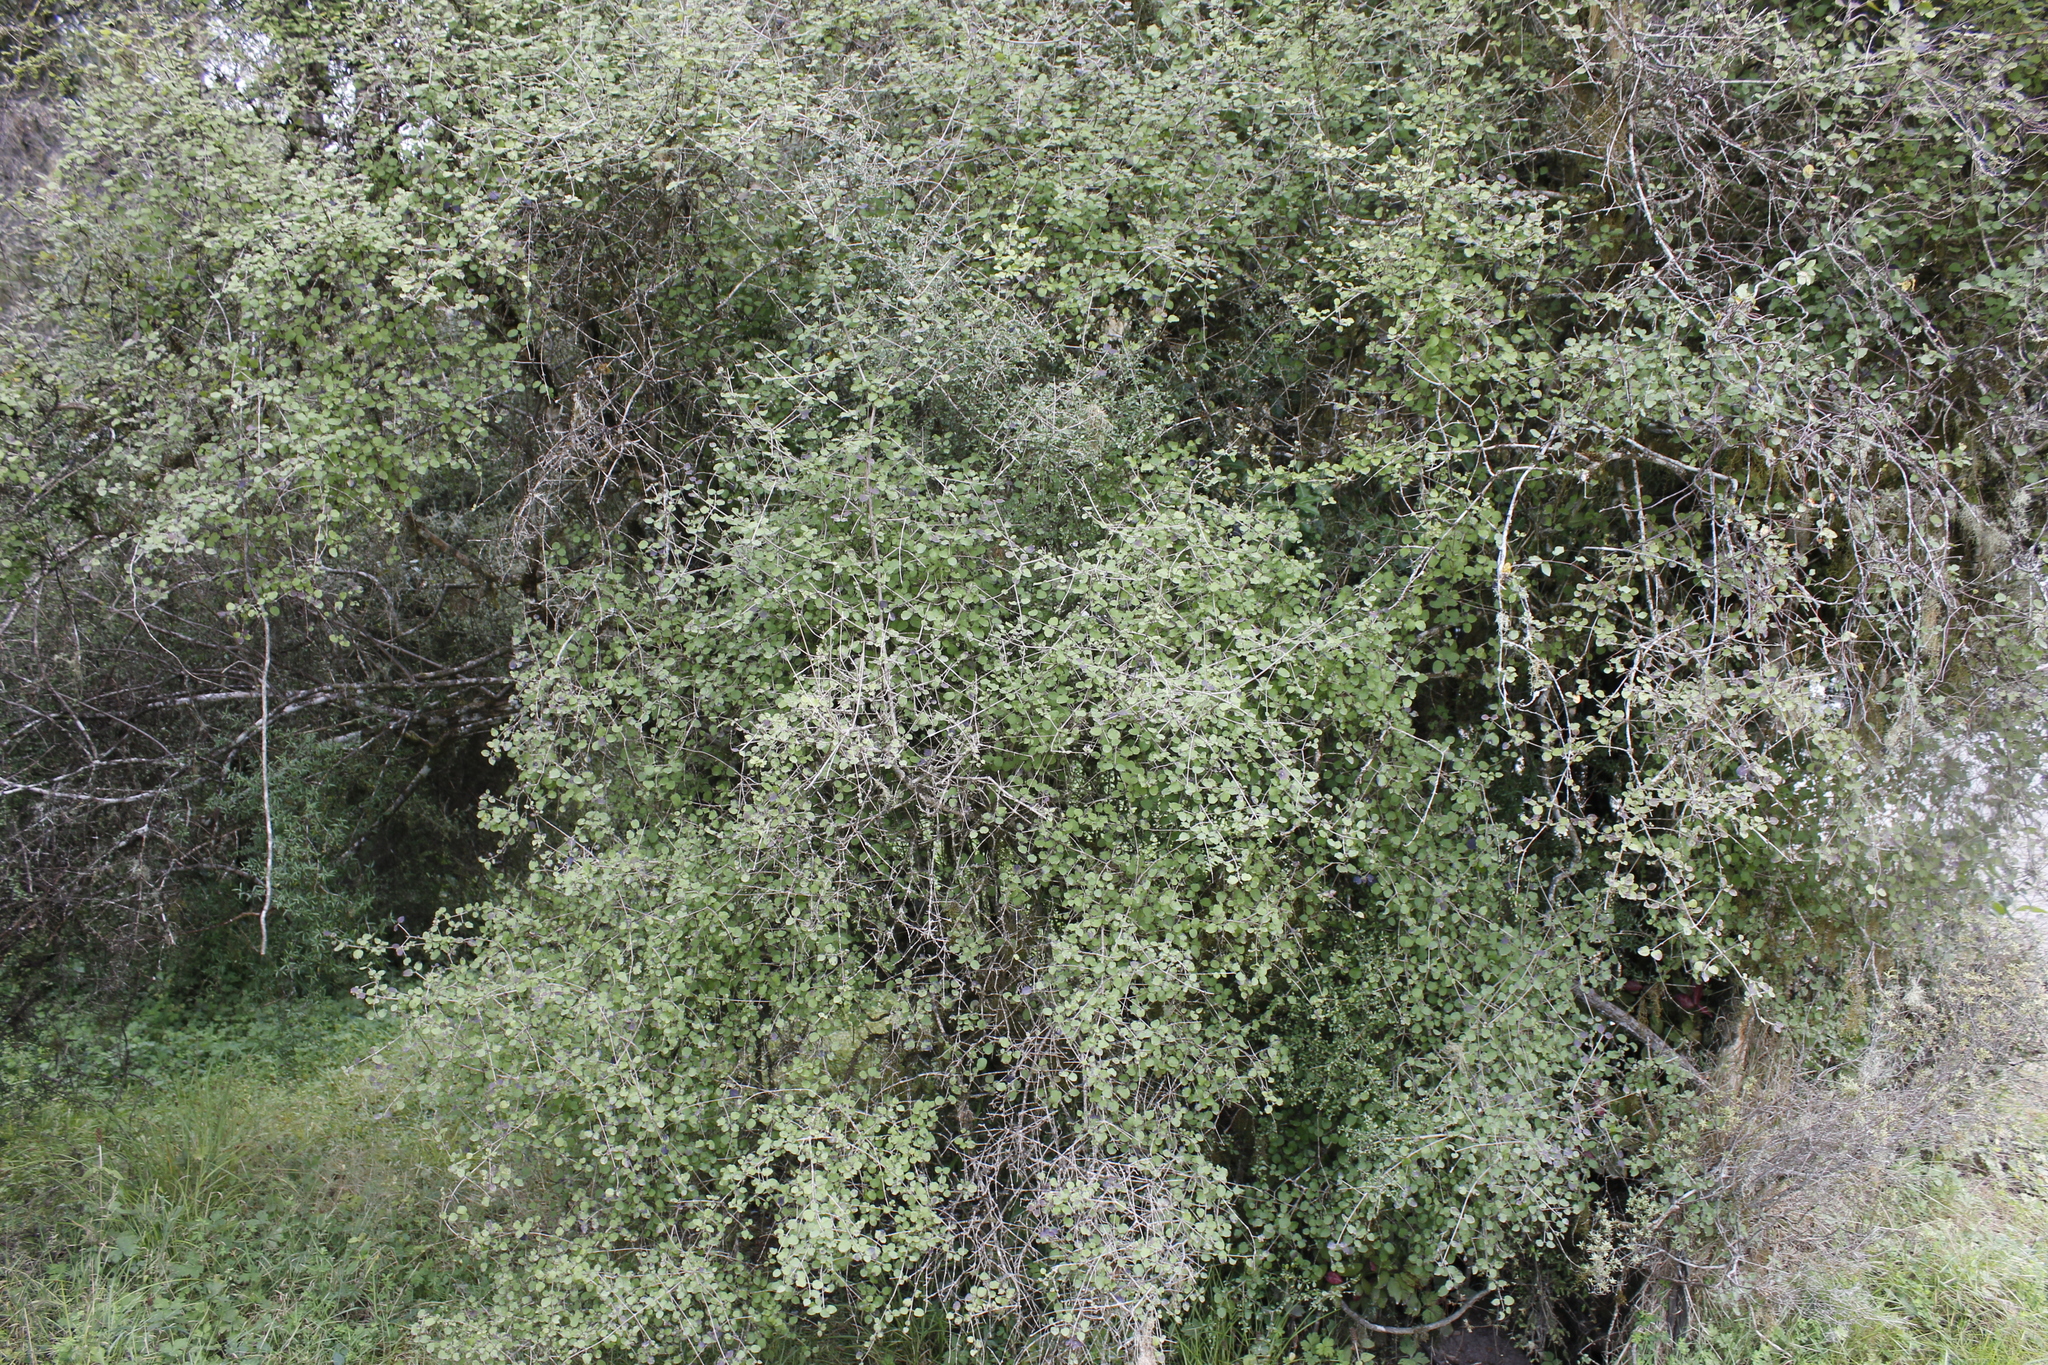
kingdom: Plantae
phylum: Tracheophyta
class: Magnoliopsida
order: Gentianales
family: Rubiaceae
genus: Coprosma
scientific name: Coprosma rotundifolia
